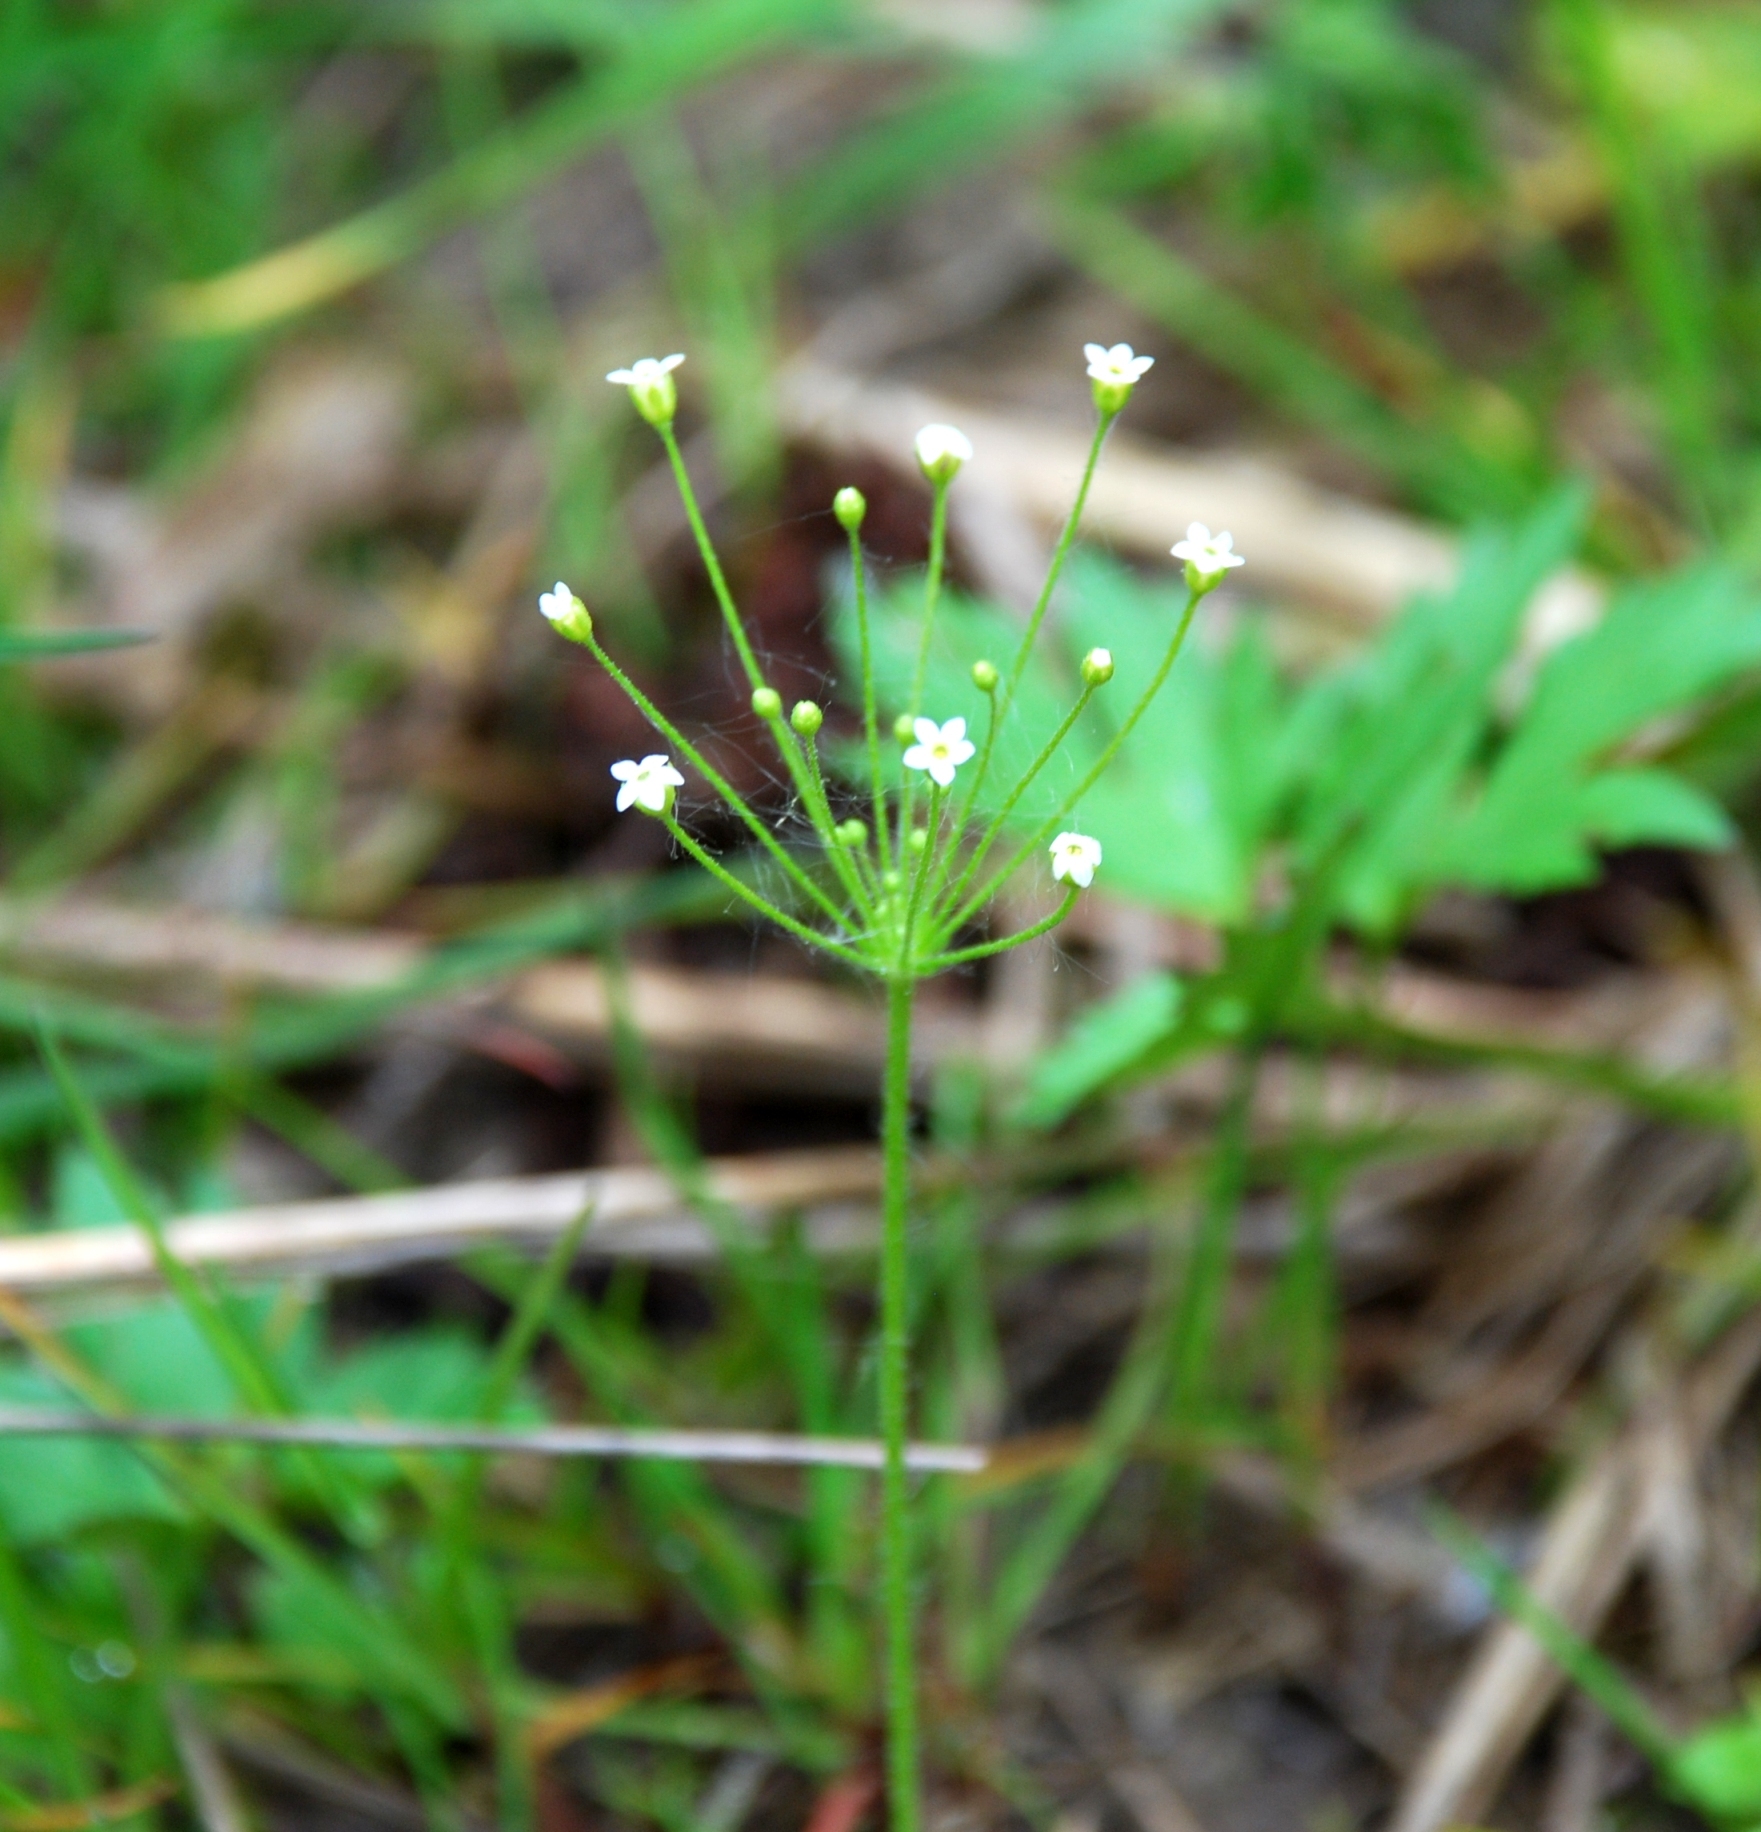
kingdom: Plantae
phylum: Tracheophyta
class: Magnoliopsida
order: Ericales
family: Primulaceae
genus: Androsace
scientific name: Androsace filiformis
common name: Filiform rock jasmine
